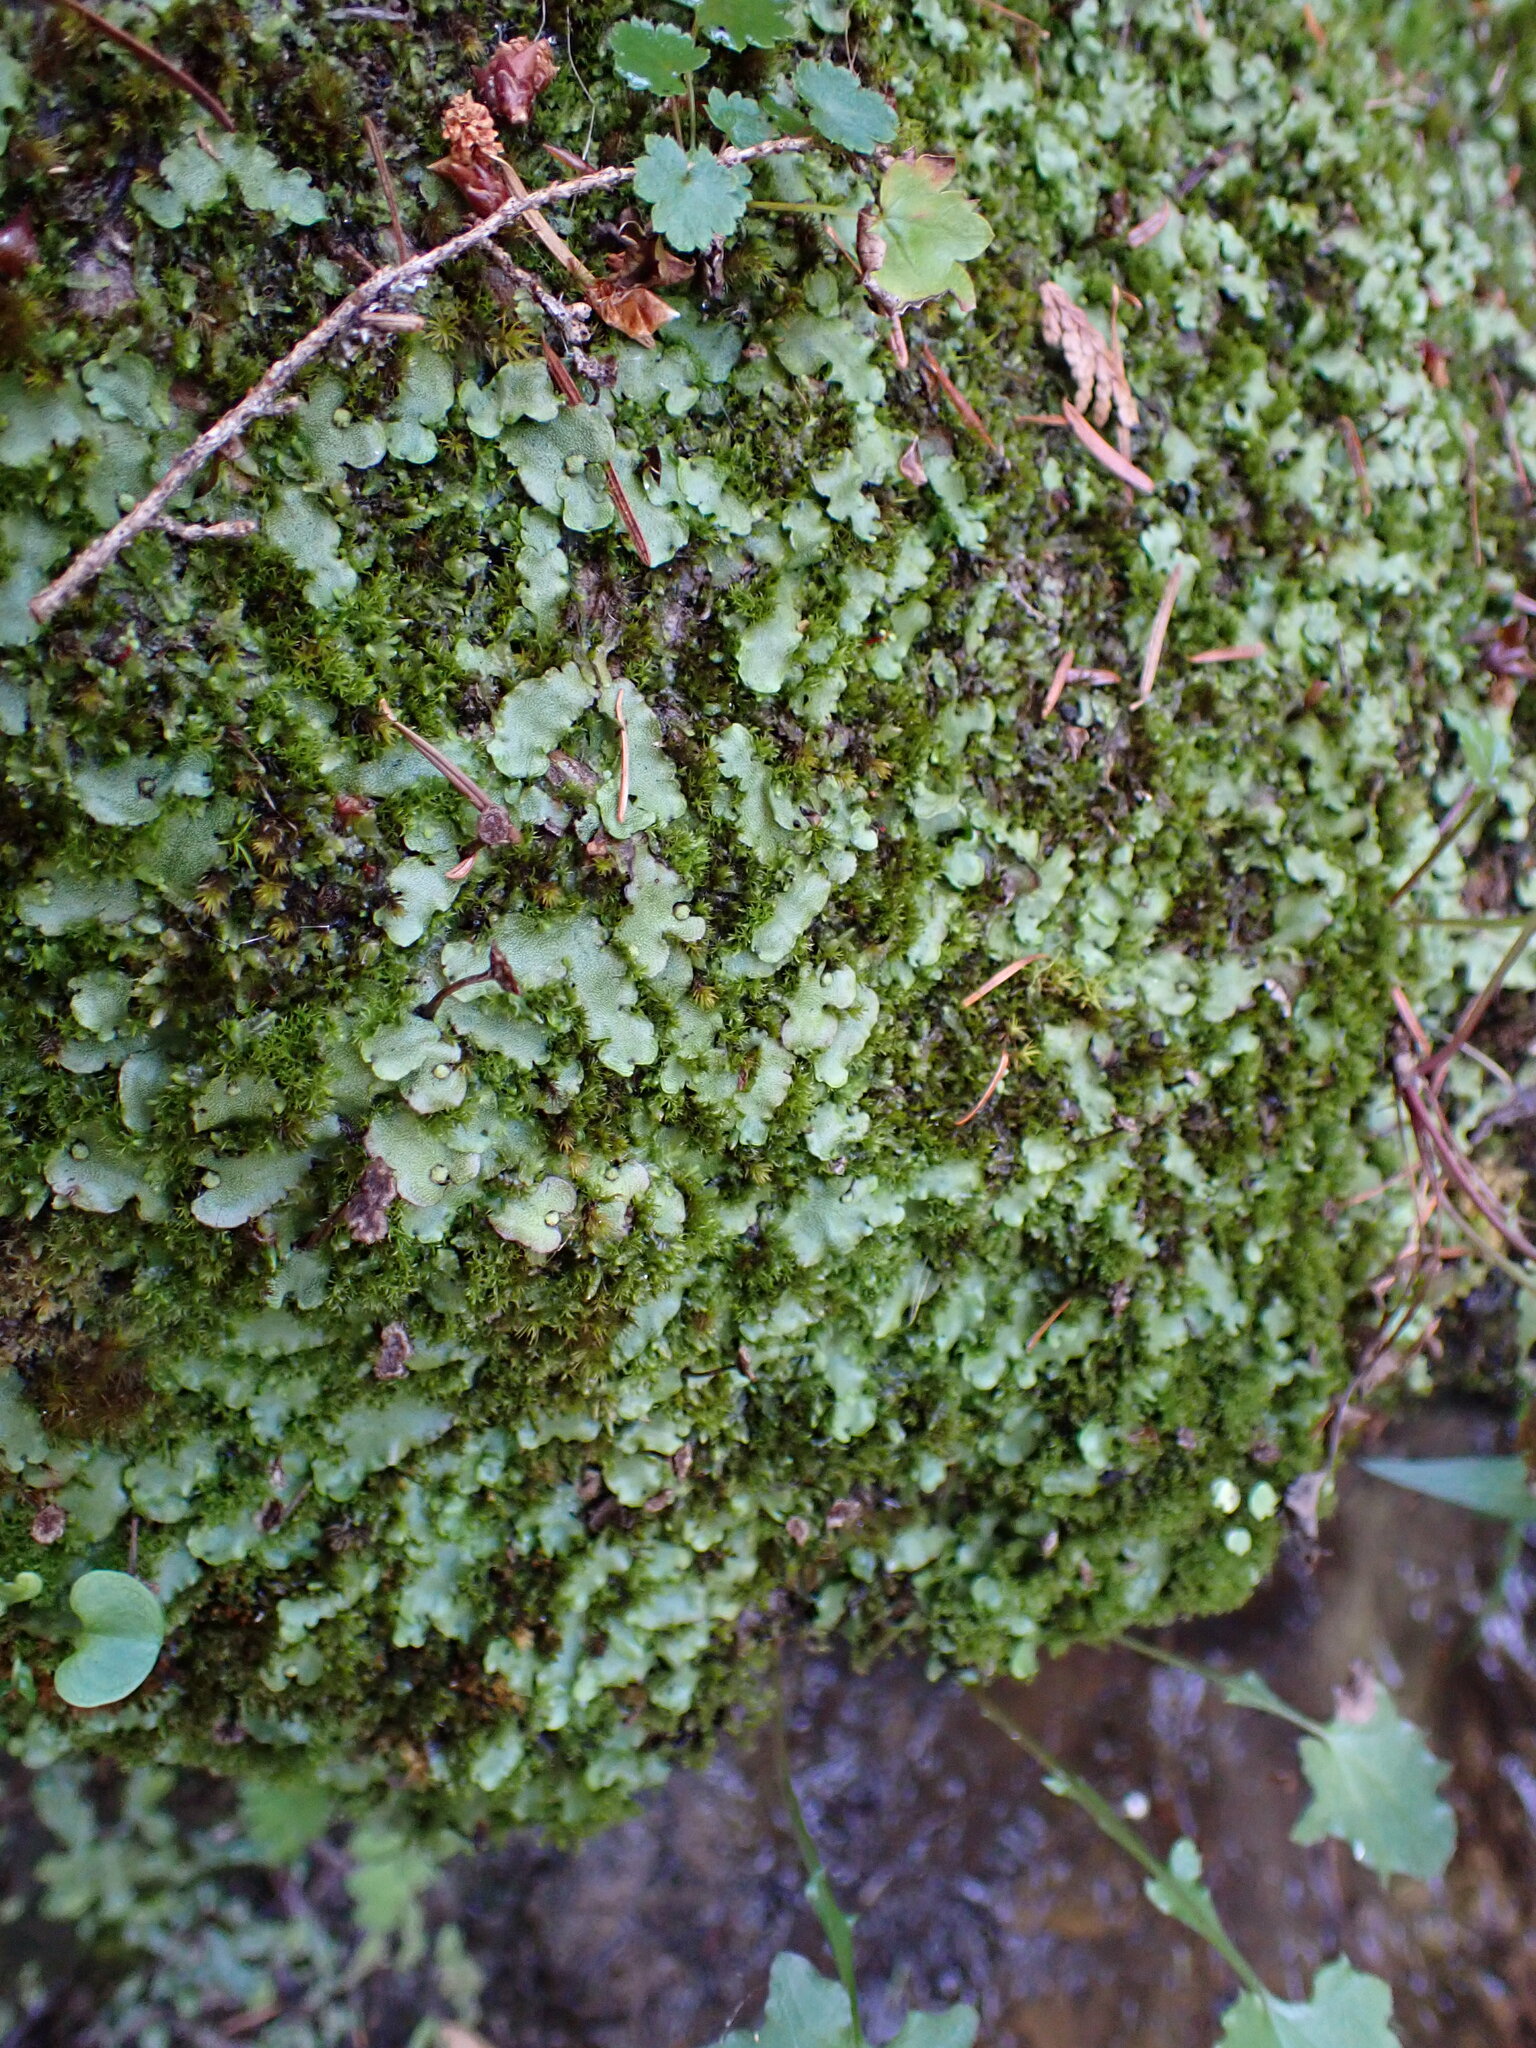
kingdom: Plantae
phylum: Marchantiophyta
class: Marchantiopsida
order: Marchantiales
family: Marchantiaceae
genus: Marchantia
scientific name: Marchantia quadrata
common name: Narrow mushroom-headed liverwort
